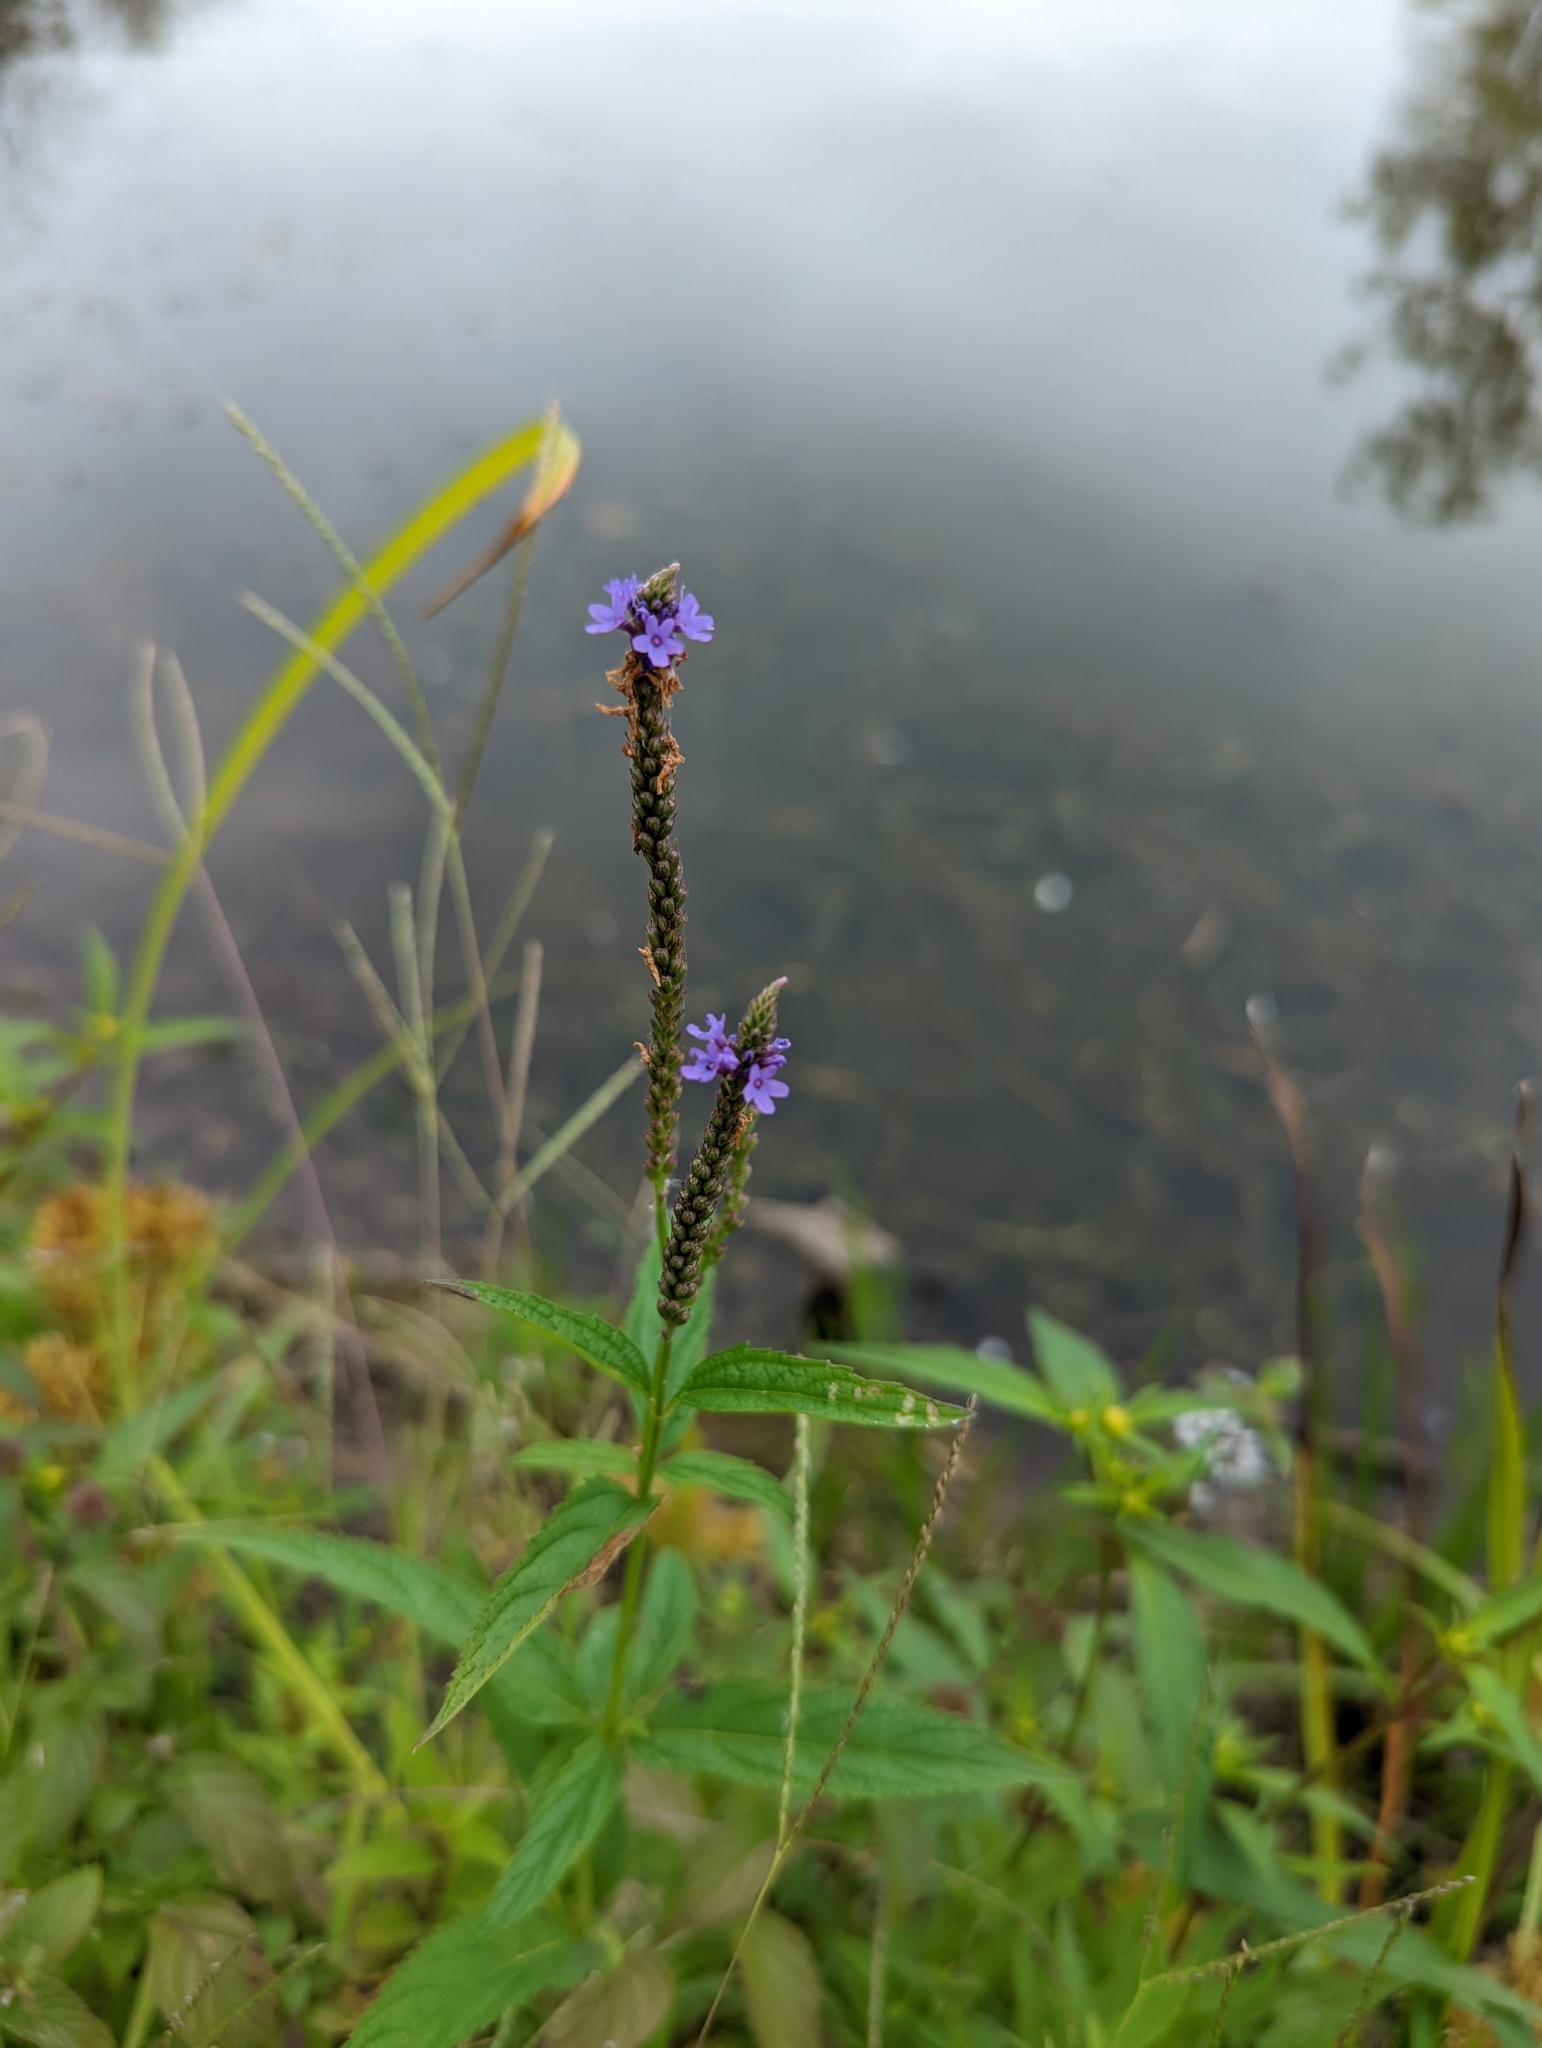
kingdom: Plantae
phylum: Tracheophyta
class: Magnoliopsida
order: Lamiales
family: Verbenaceae
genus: Verbena
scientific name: Verbena hastata
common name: American blue vervain
